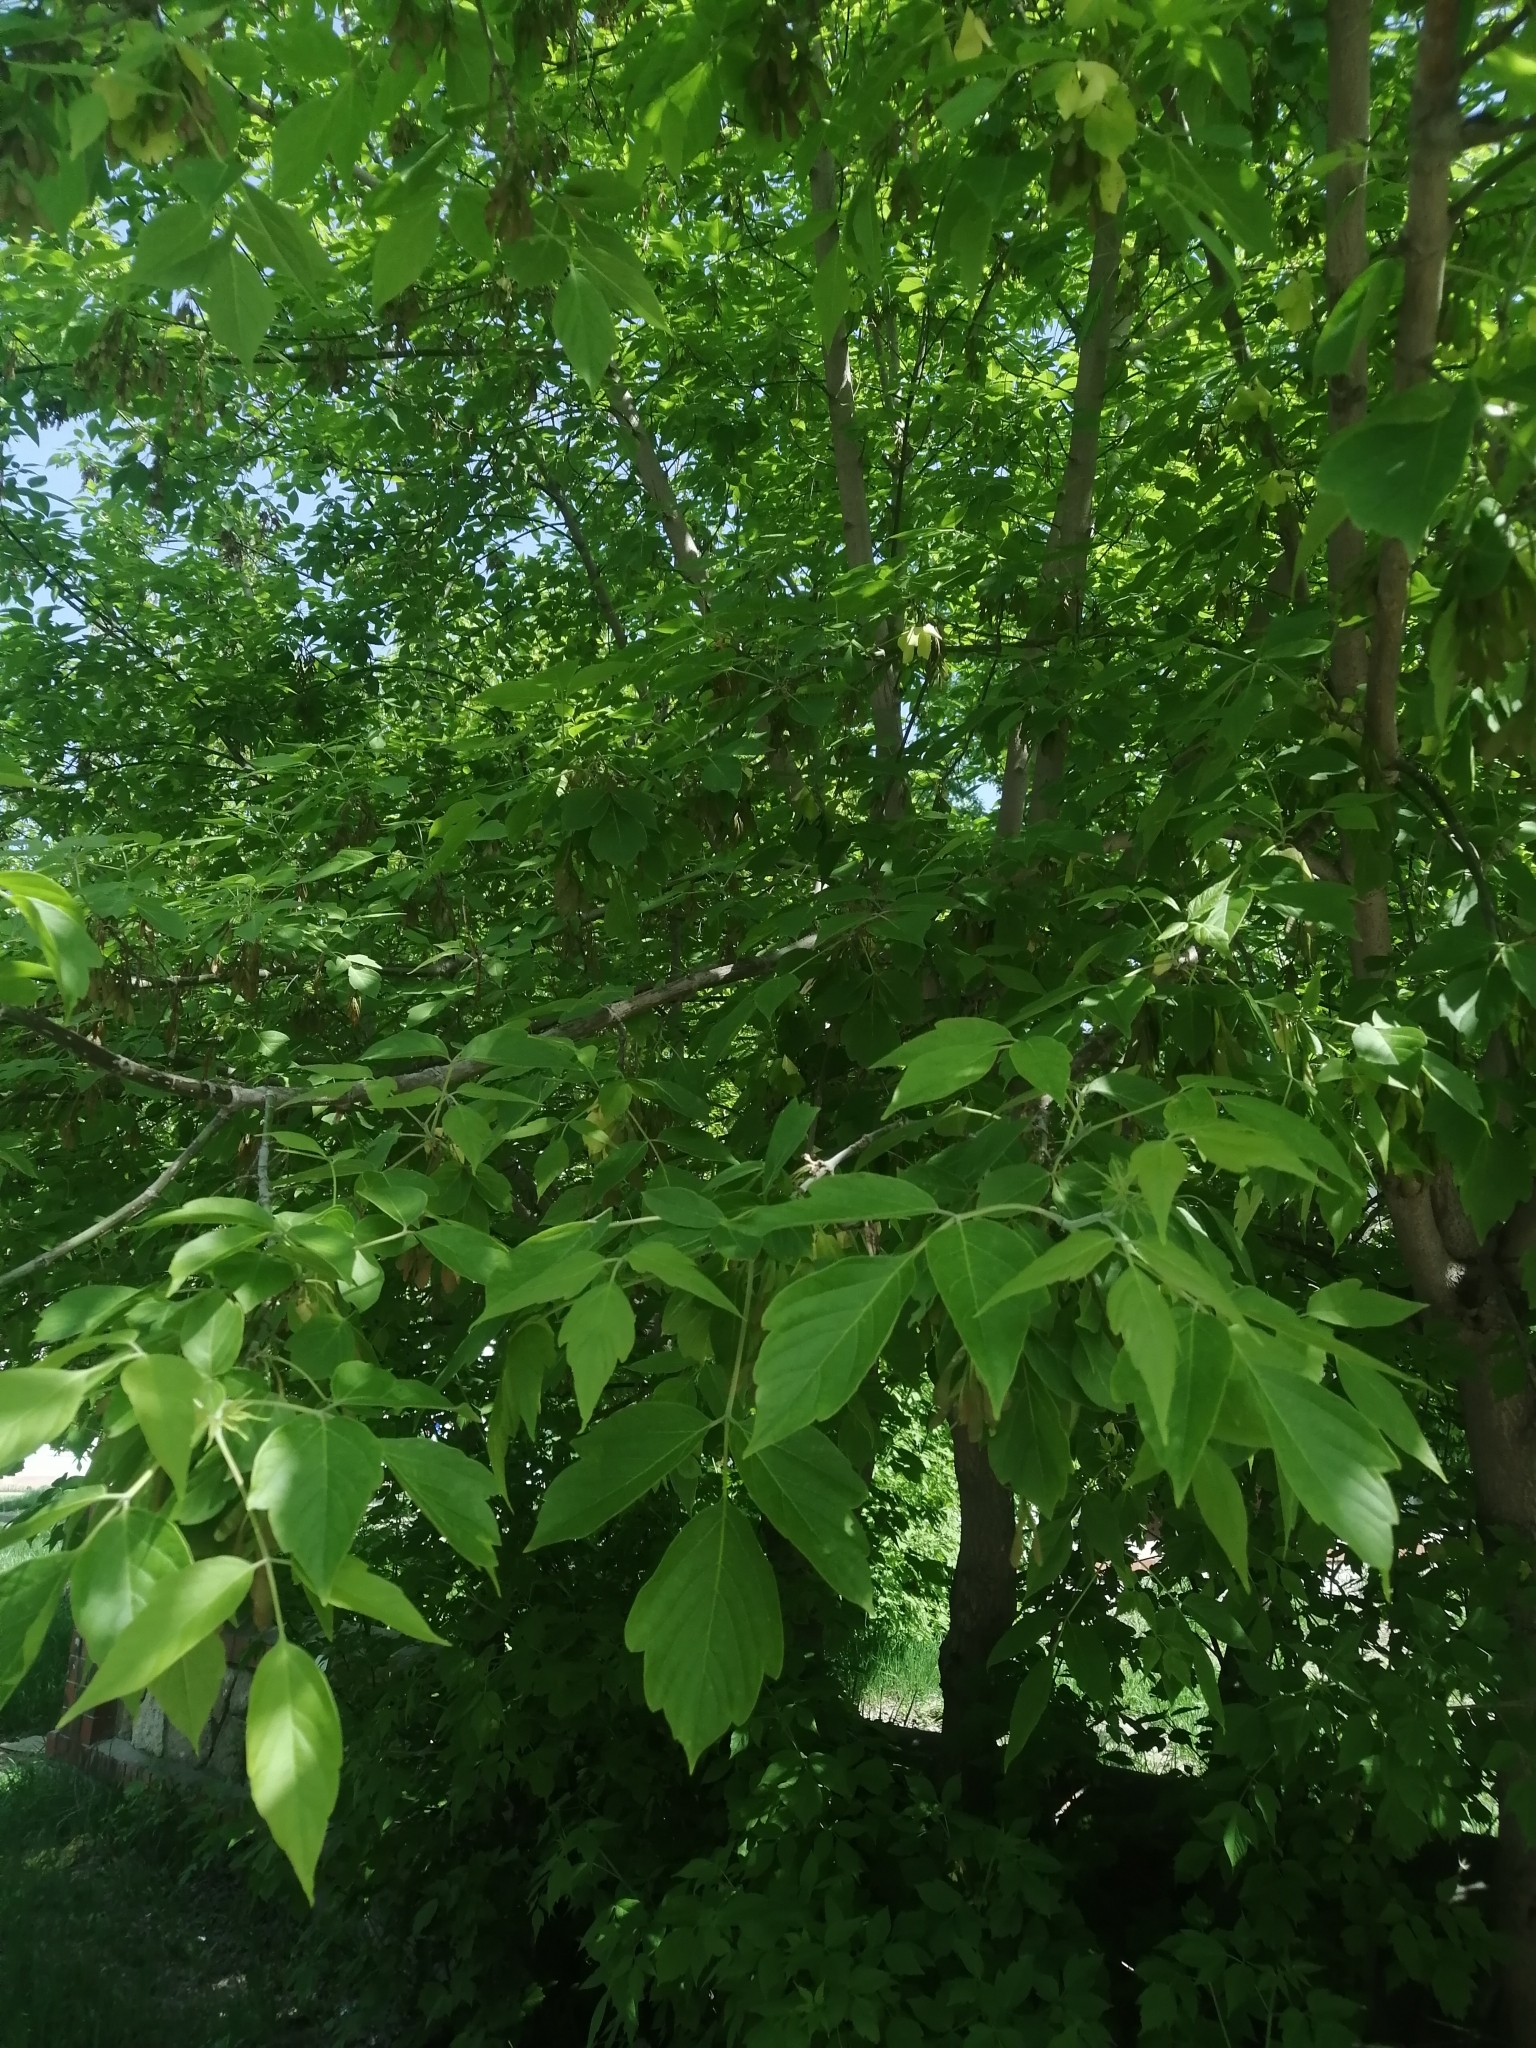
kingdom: Plantae
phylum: Tracheophyta
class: Magnoliopsida
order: Sapindales
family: Sapindaceae
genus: Acer
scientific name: Acer negundo
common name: Ashleaf maple
